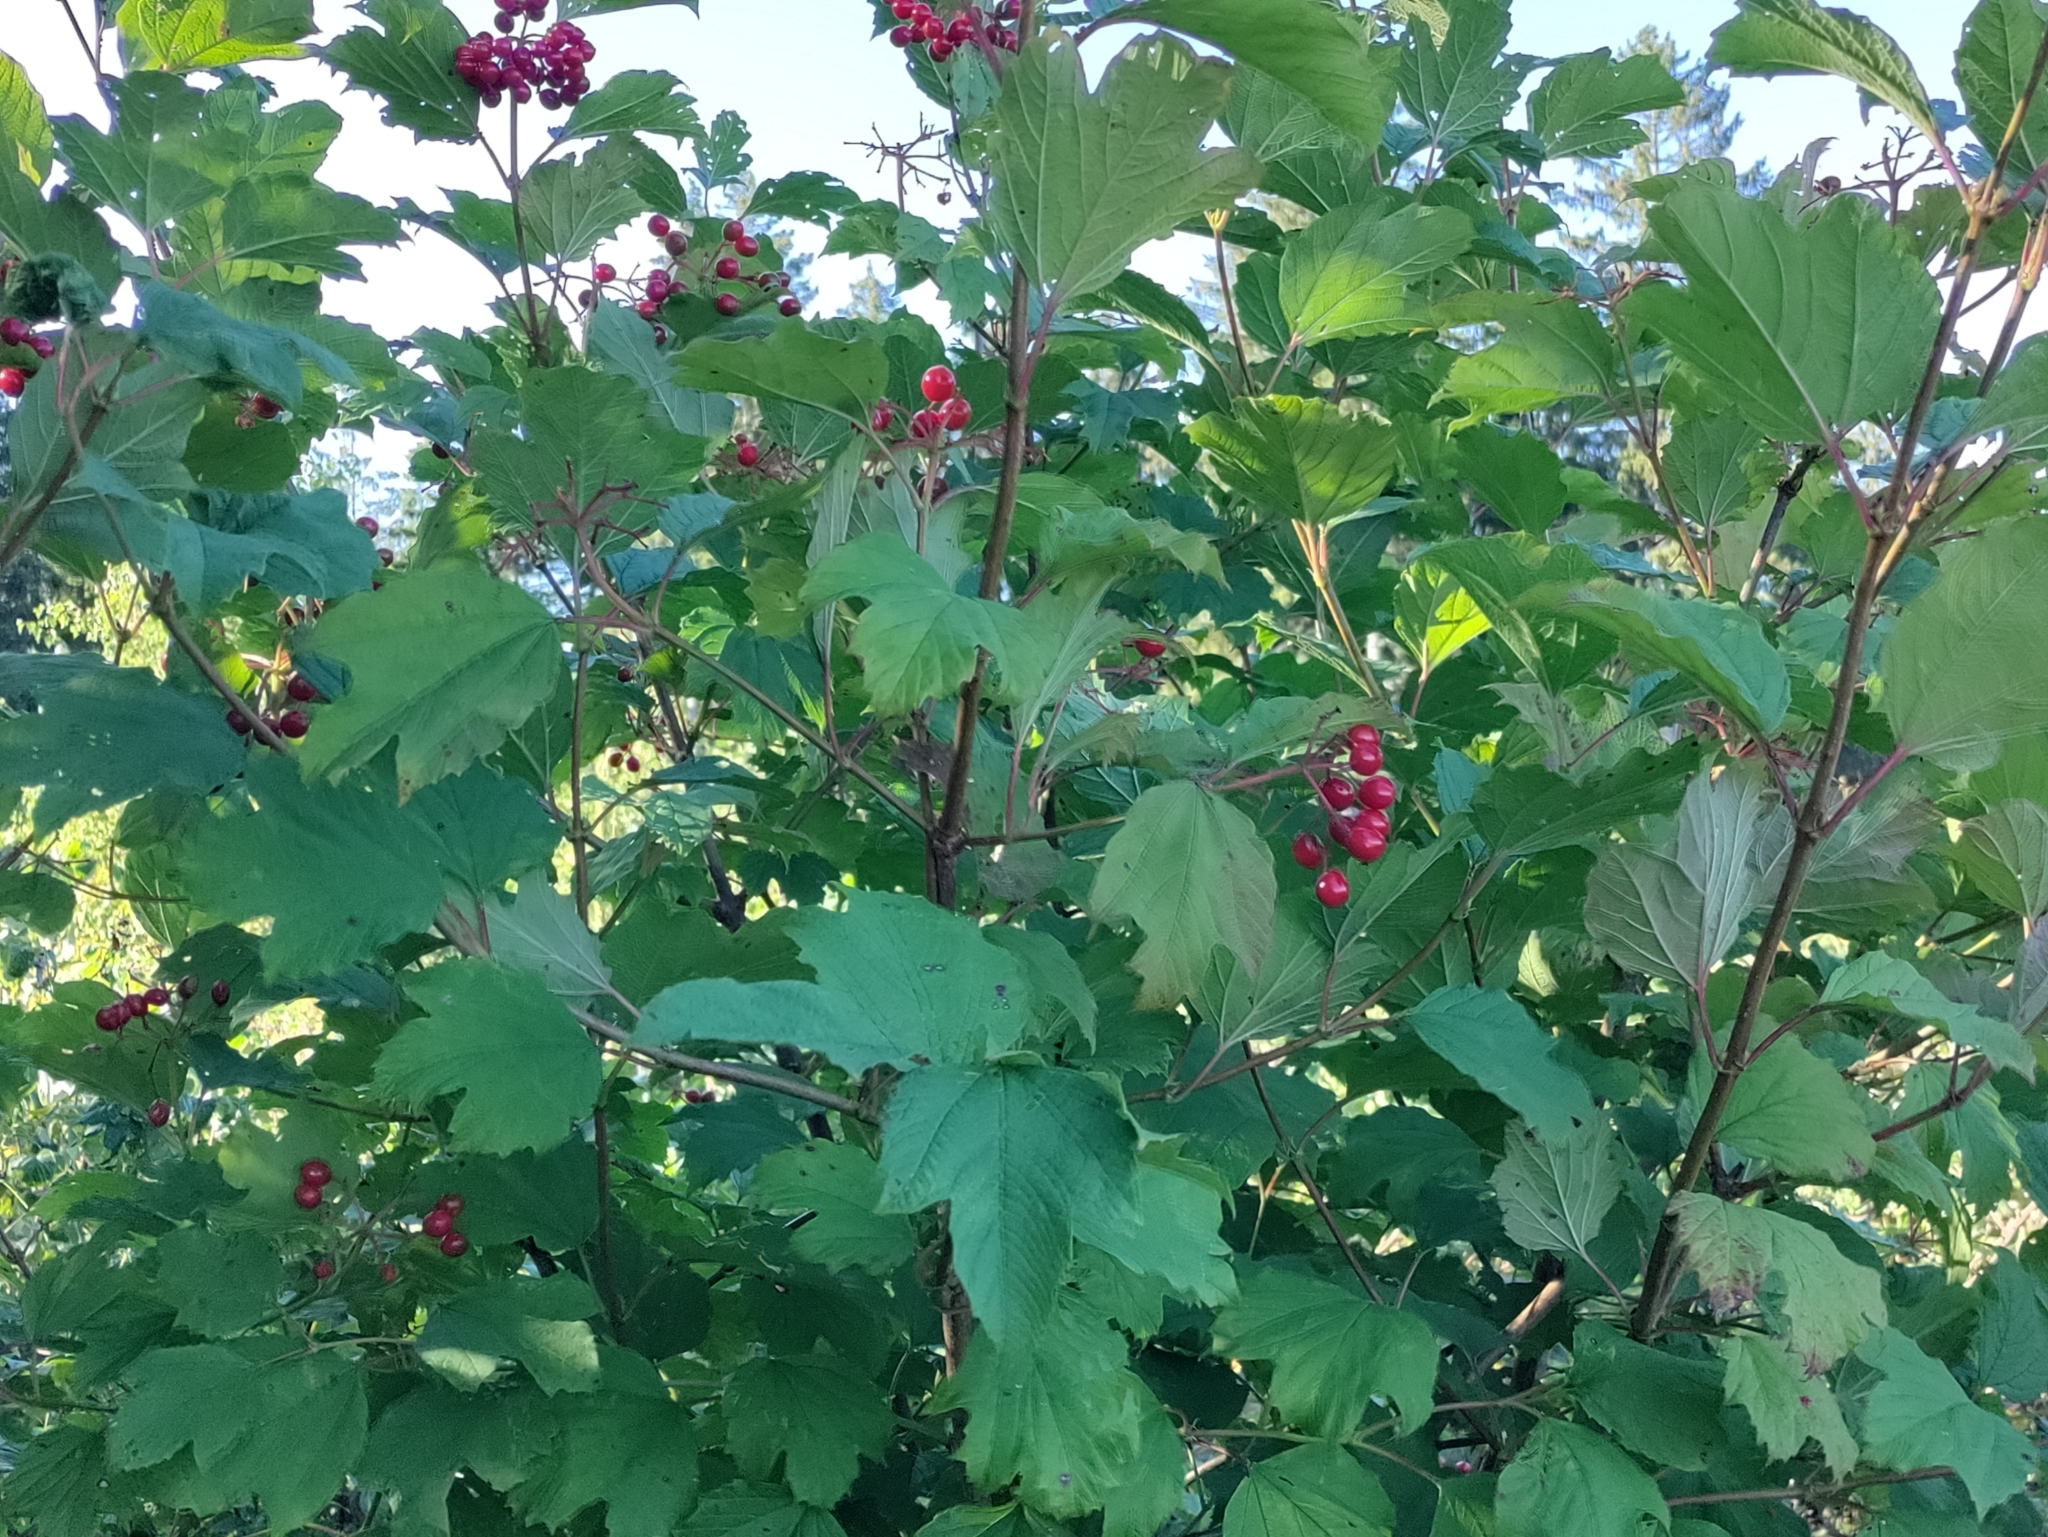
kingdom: Plantae
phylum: Tracheophyta
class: Magnoliopsida
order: Dipsacales
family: Viburnaceae
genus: Viburnum
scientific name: Viburnum opulus
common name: Guelder-rose
